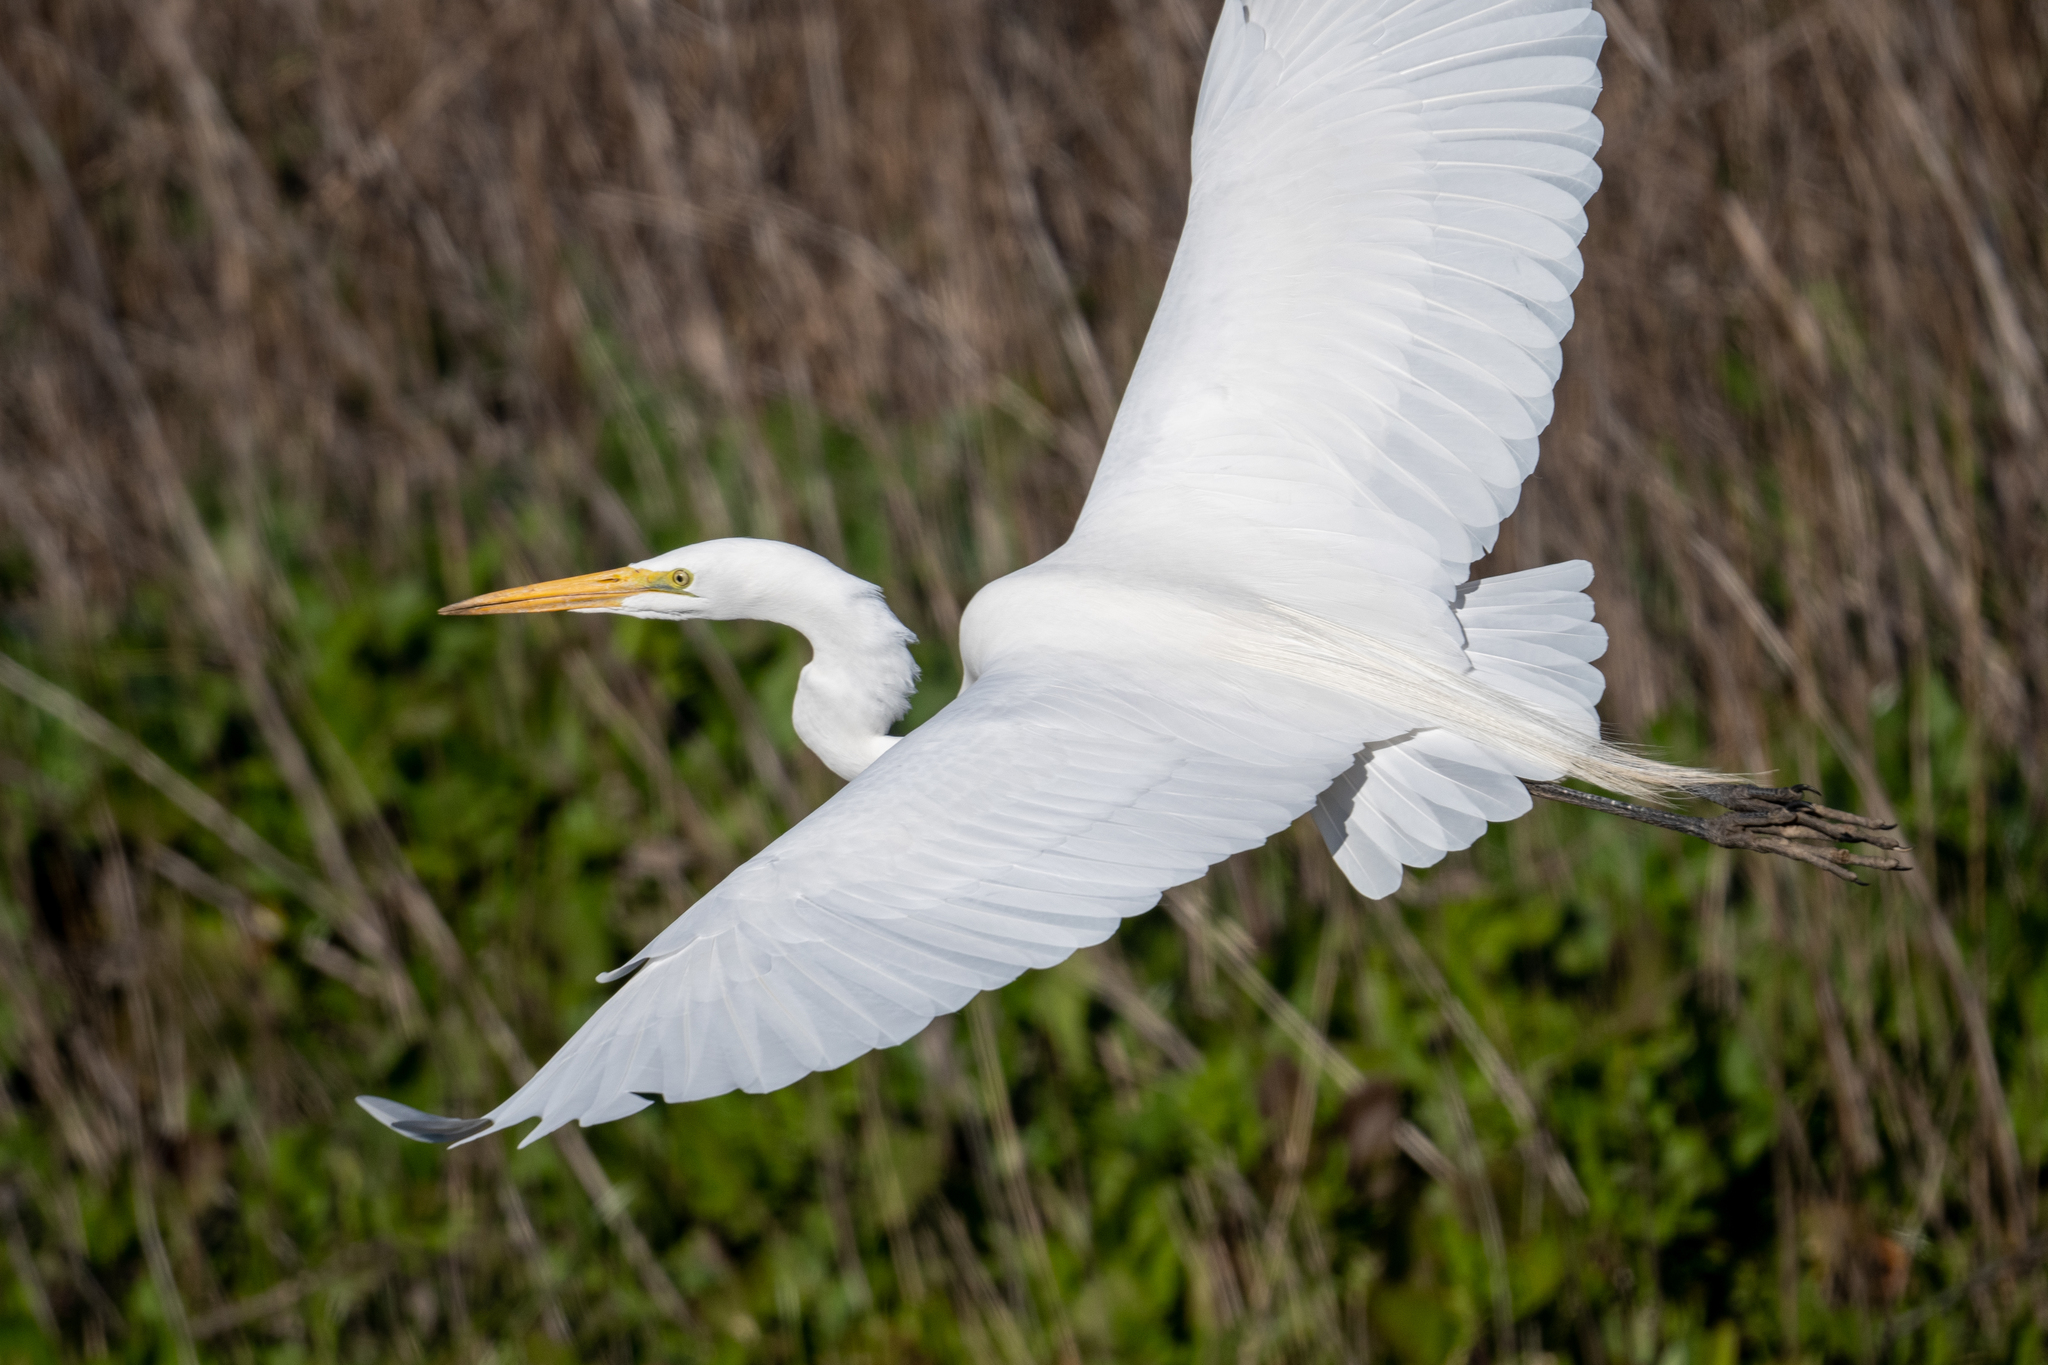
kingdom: Animalia
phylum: Chordata
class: Aves
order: Pelecaniformes
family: Ardeidae
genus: Ardea
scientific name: Ardea alba
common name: Great egret
